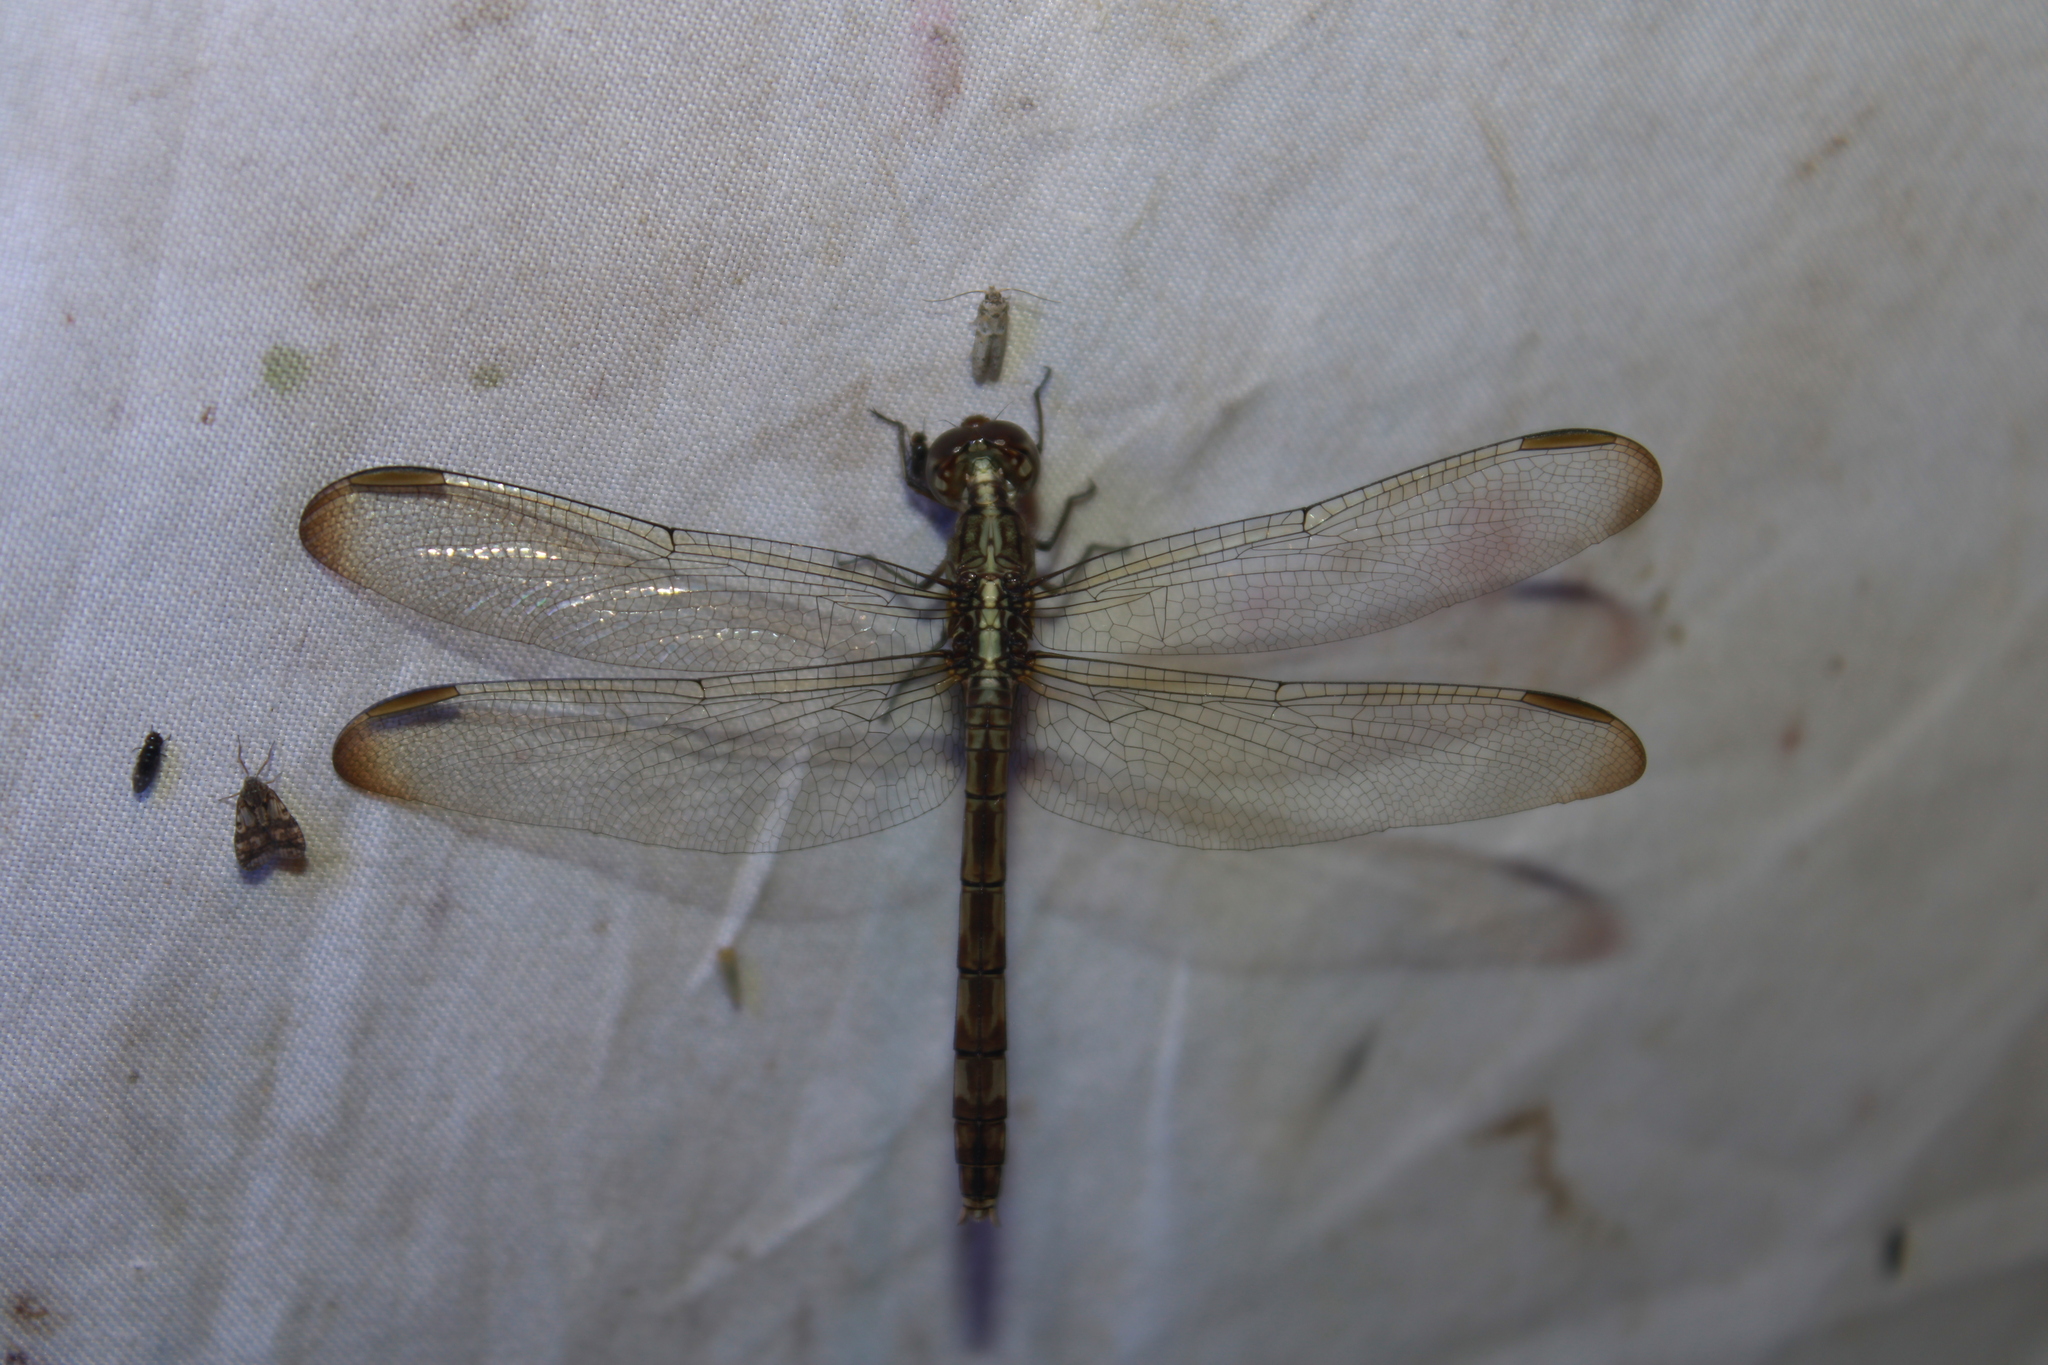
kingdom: Animalia
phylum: Arthropoda
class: Insecta
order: Odonata
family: Libellulidae
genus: Erythrodiplax
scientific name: Erythrodiplax umbrata
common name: Band-winged dragonlet
